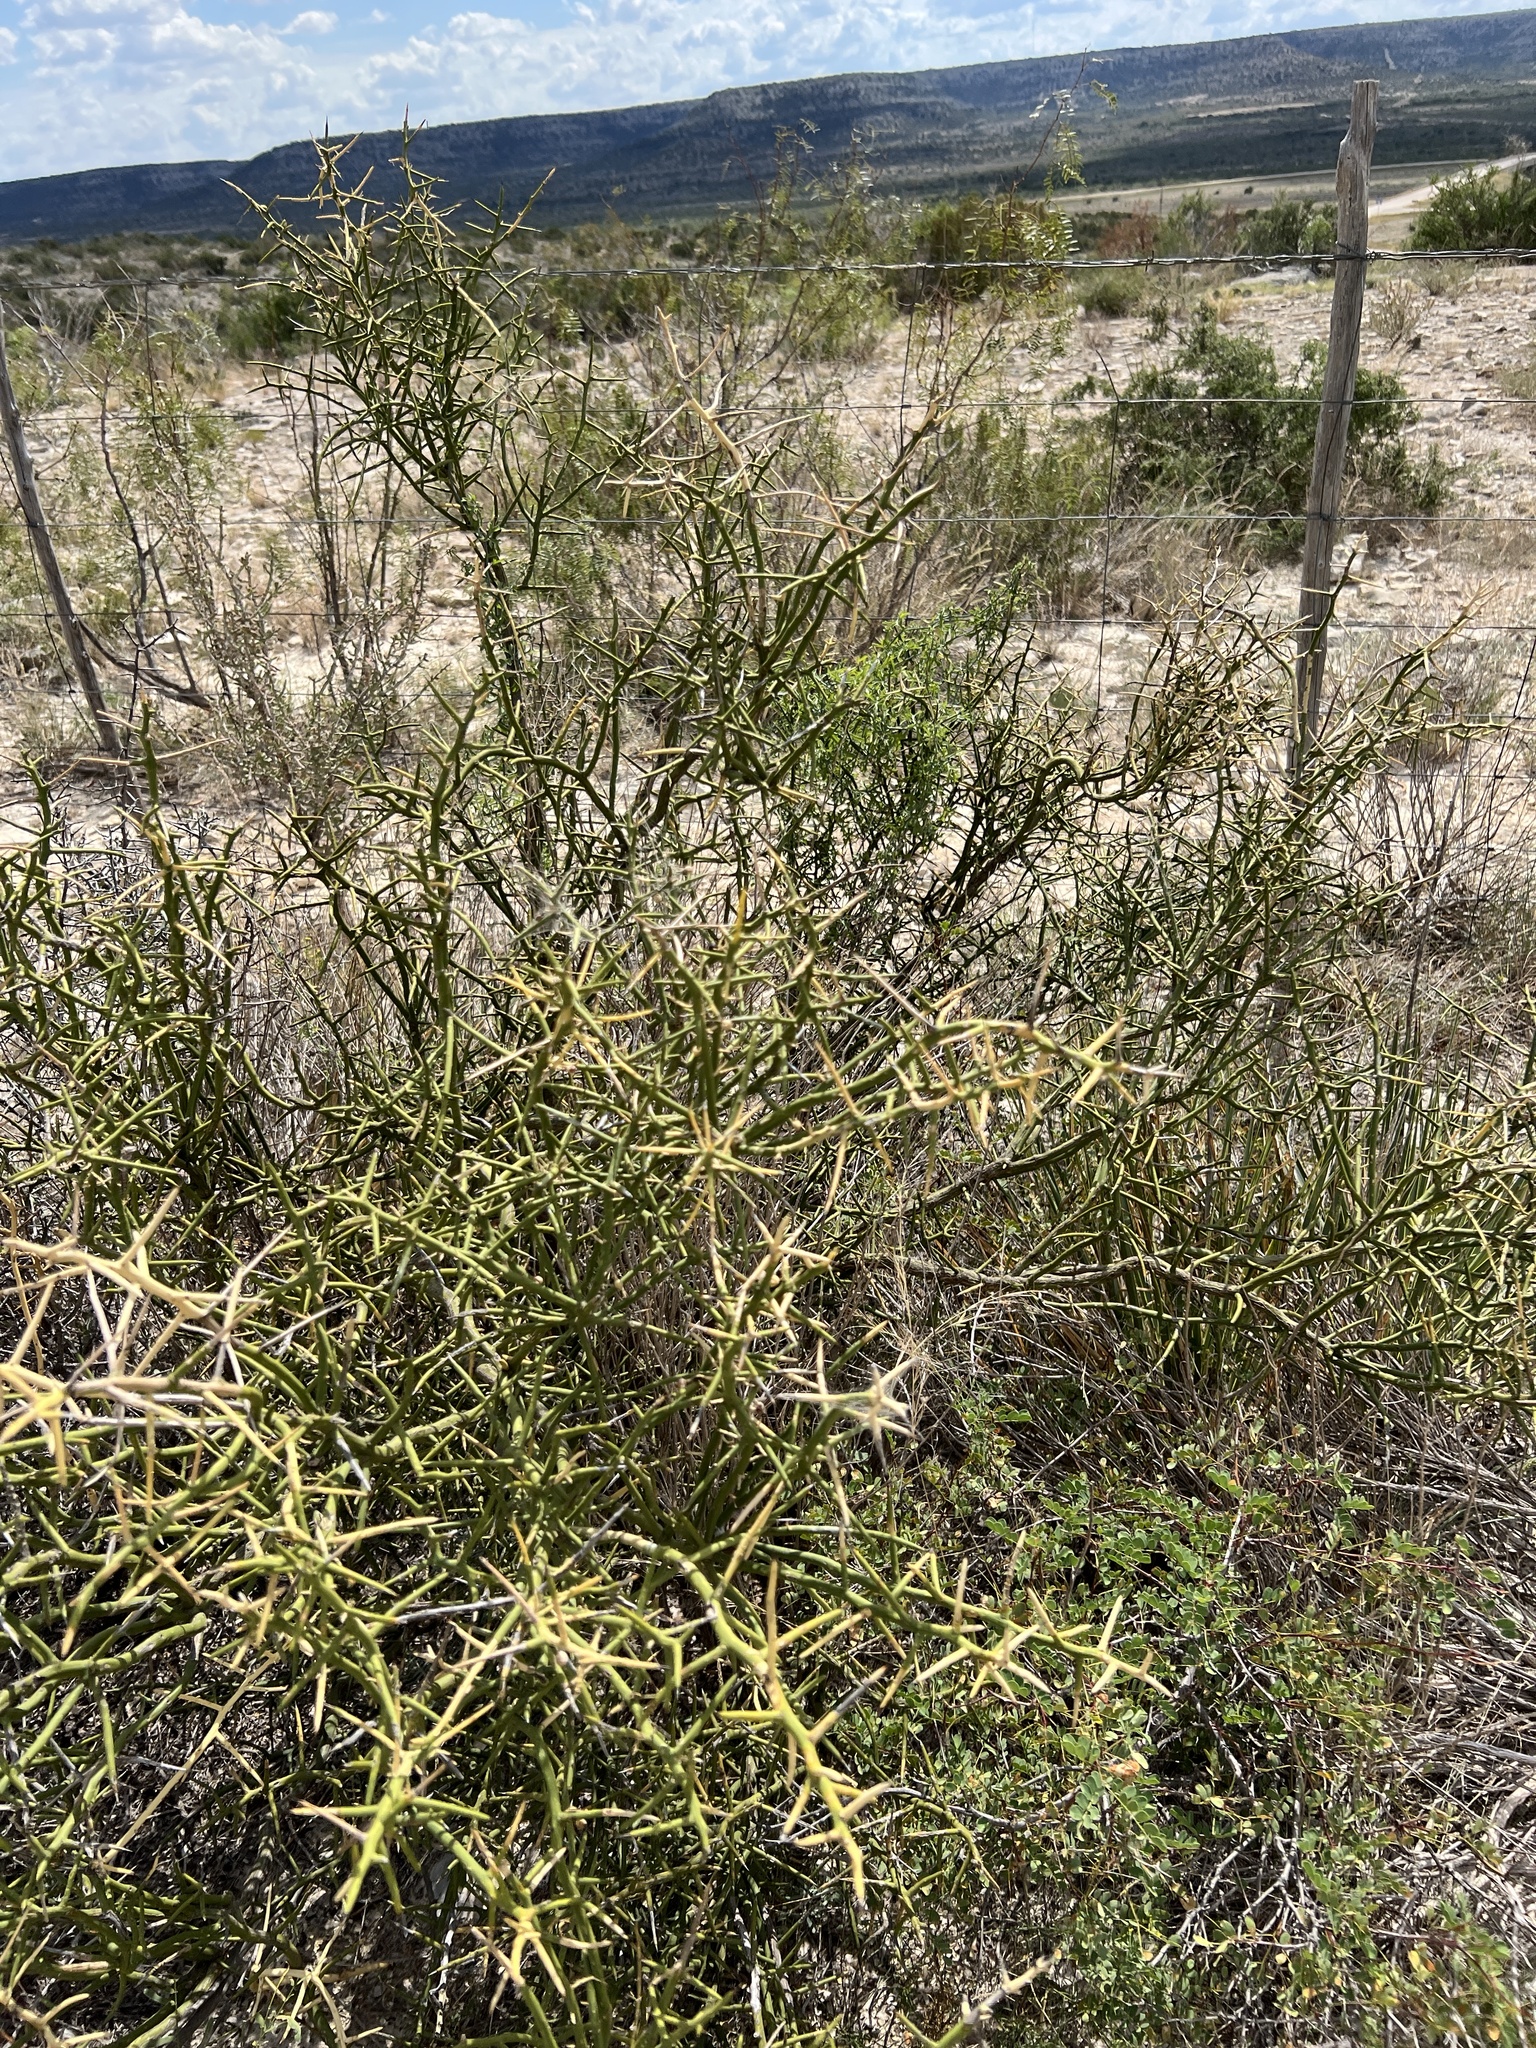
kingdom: Plantae
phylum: Tracheophyta
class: Magnoliopsida
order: Brassicales
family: Koeberliniaceae
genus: Koeberlinia
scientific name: Koeberlinia spinosa
